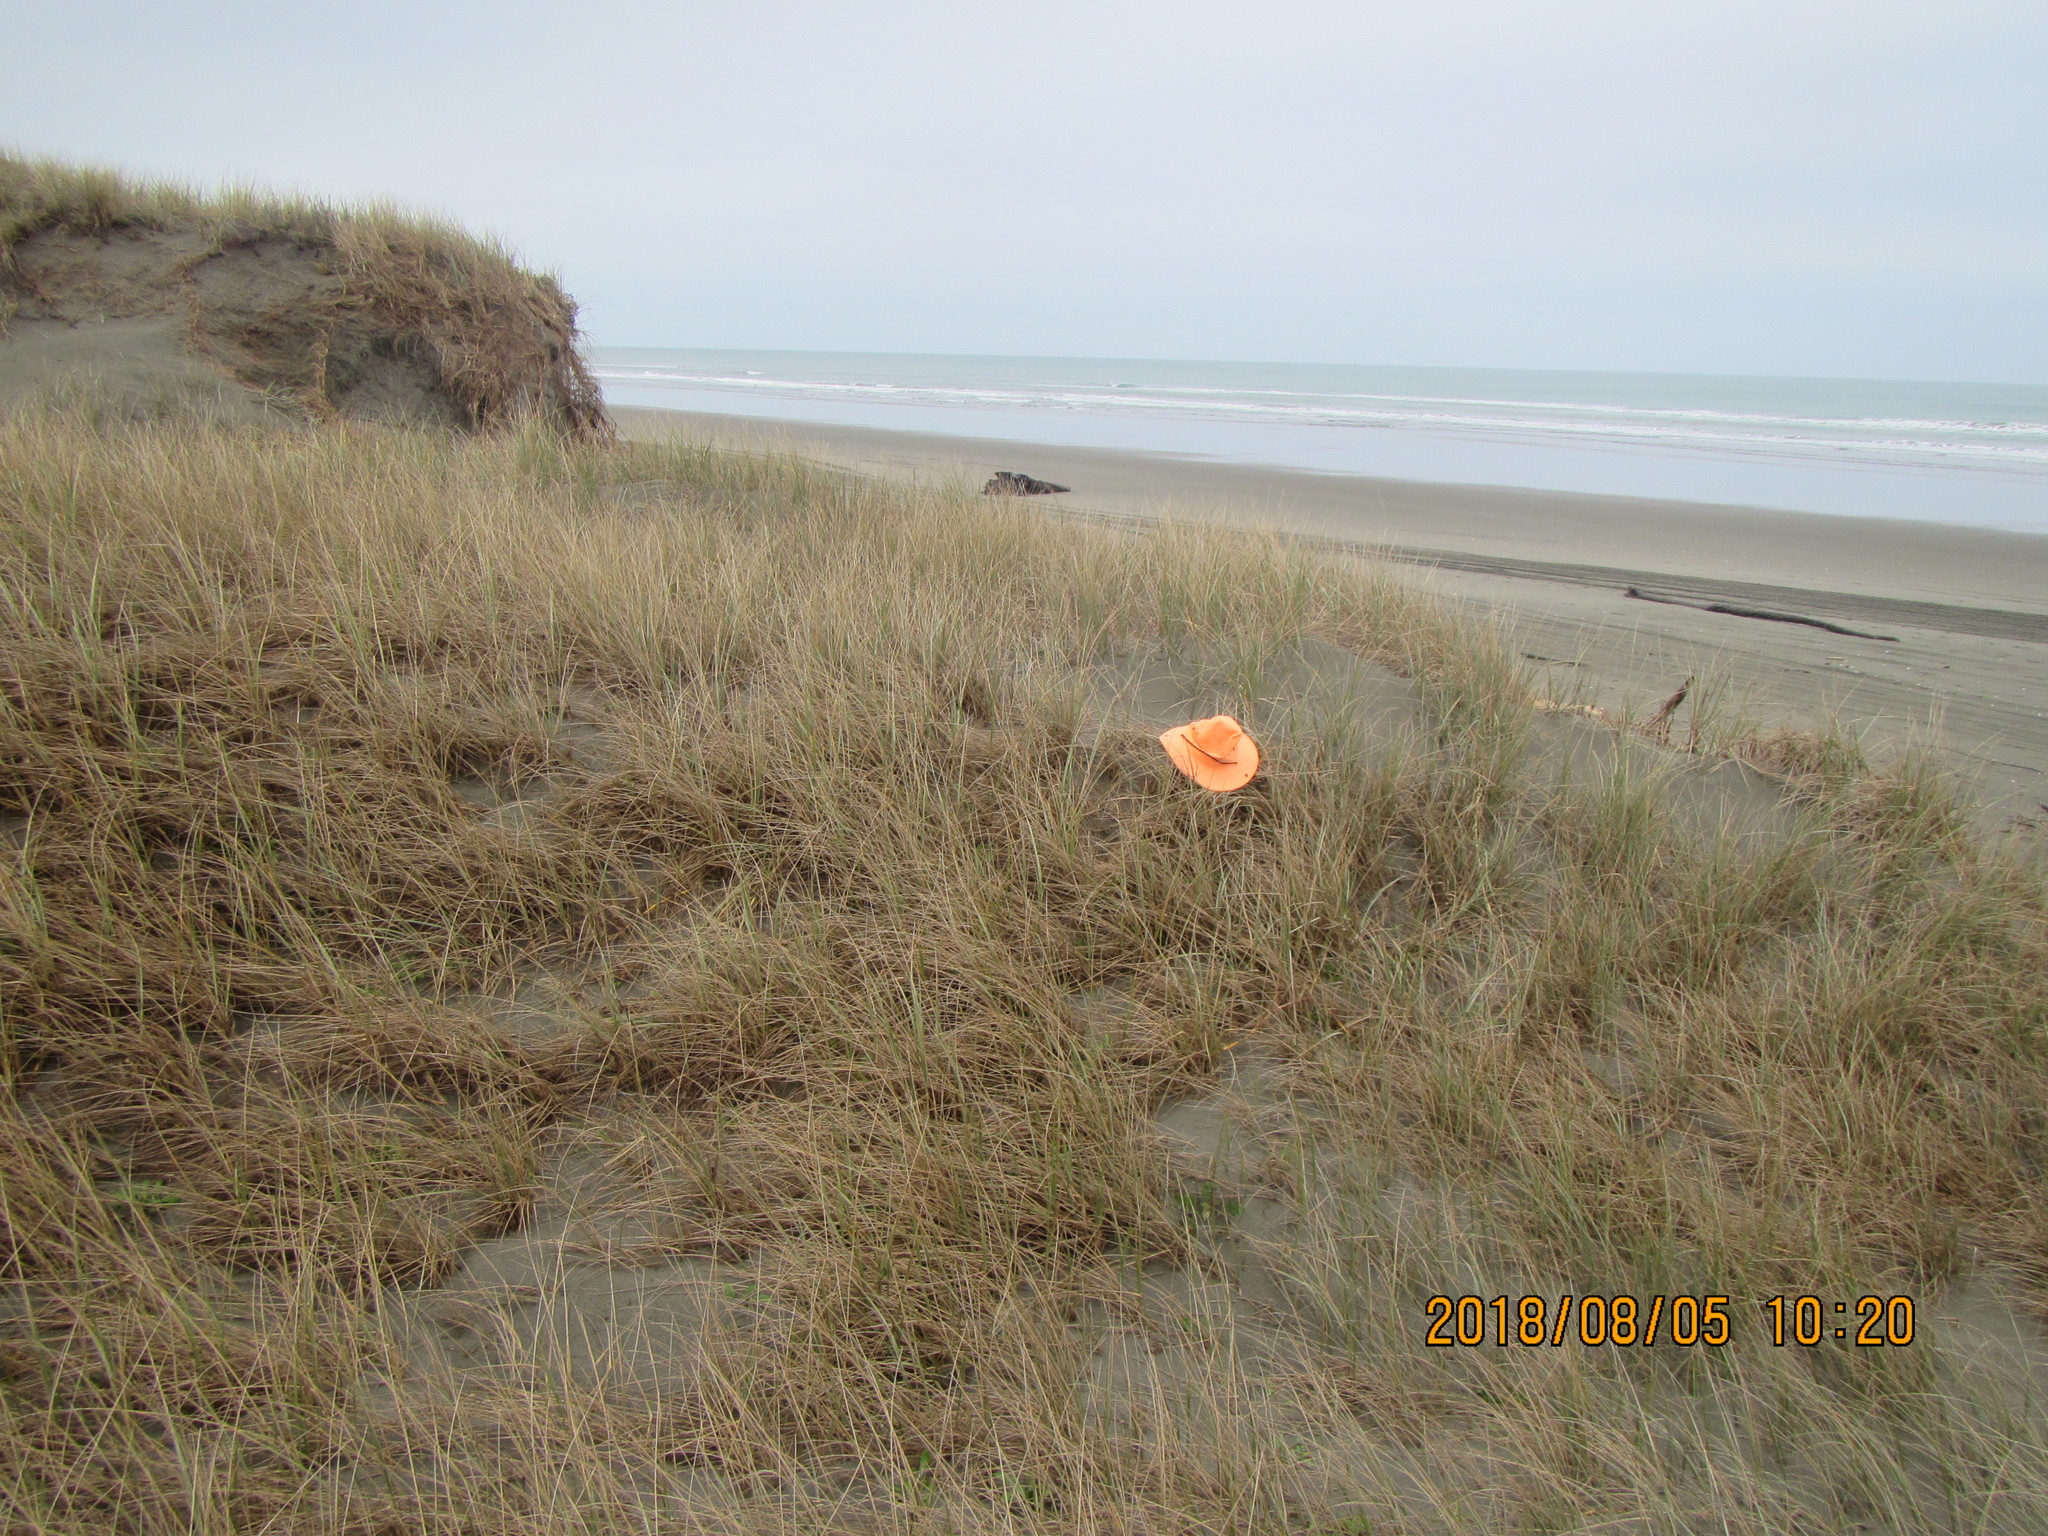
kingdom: Animalia
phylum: Arthropoda
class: Arachnida
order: Araneae
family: Theridiidae
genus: Latrodectus
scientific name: Latrodectus katipo
